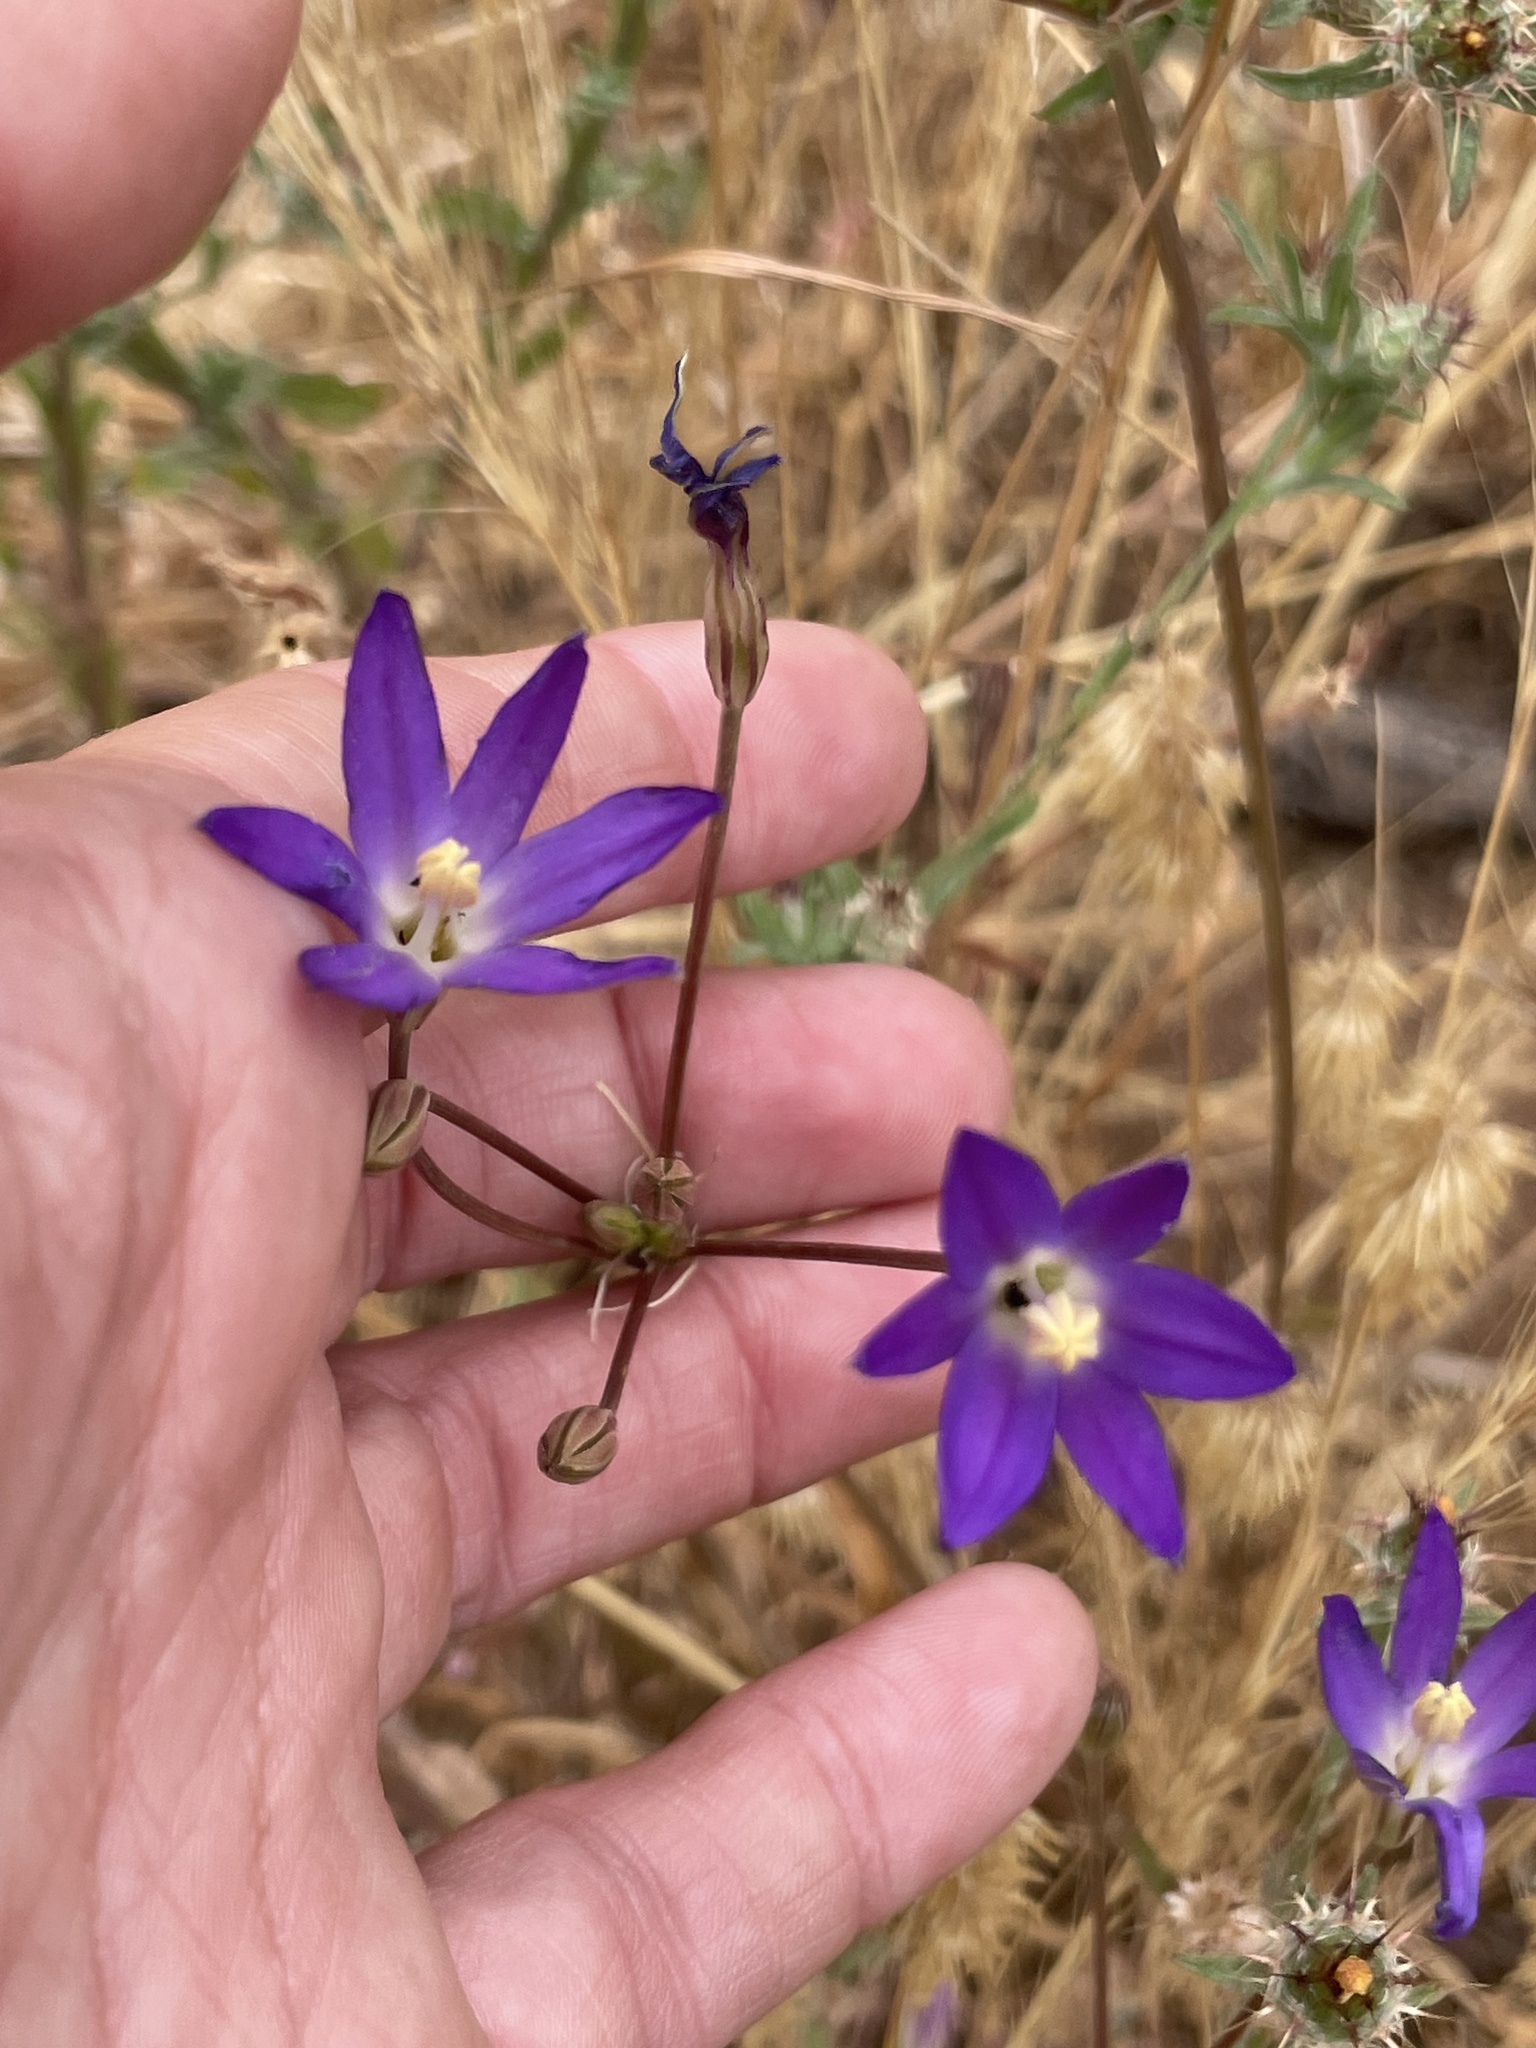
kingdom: Plantae
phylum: Tracheophyta
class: Liliopsida
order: Asparagales
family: Asparagaceae
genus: Brodiaea
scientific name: Brodiaea orcuttii
